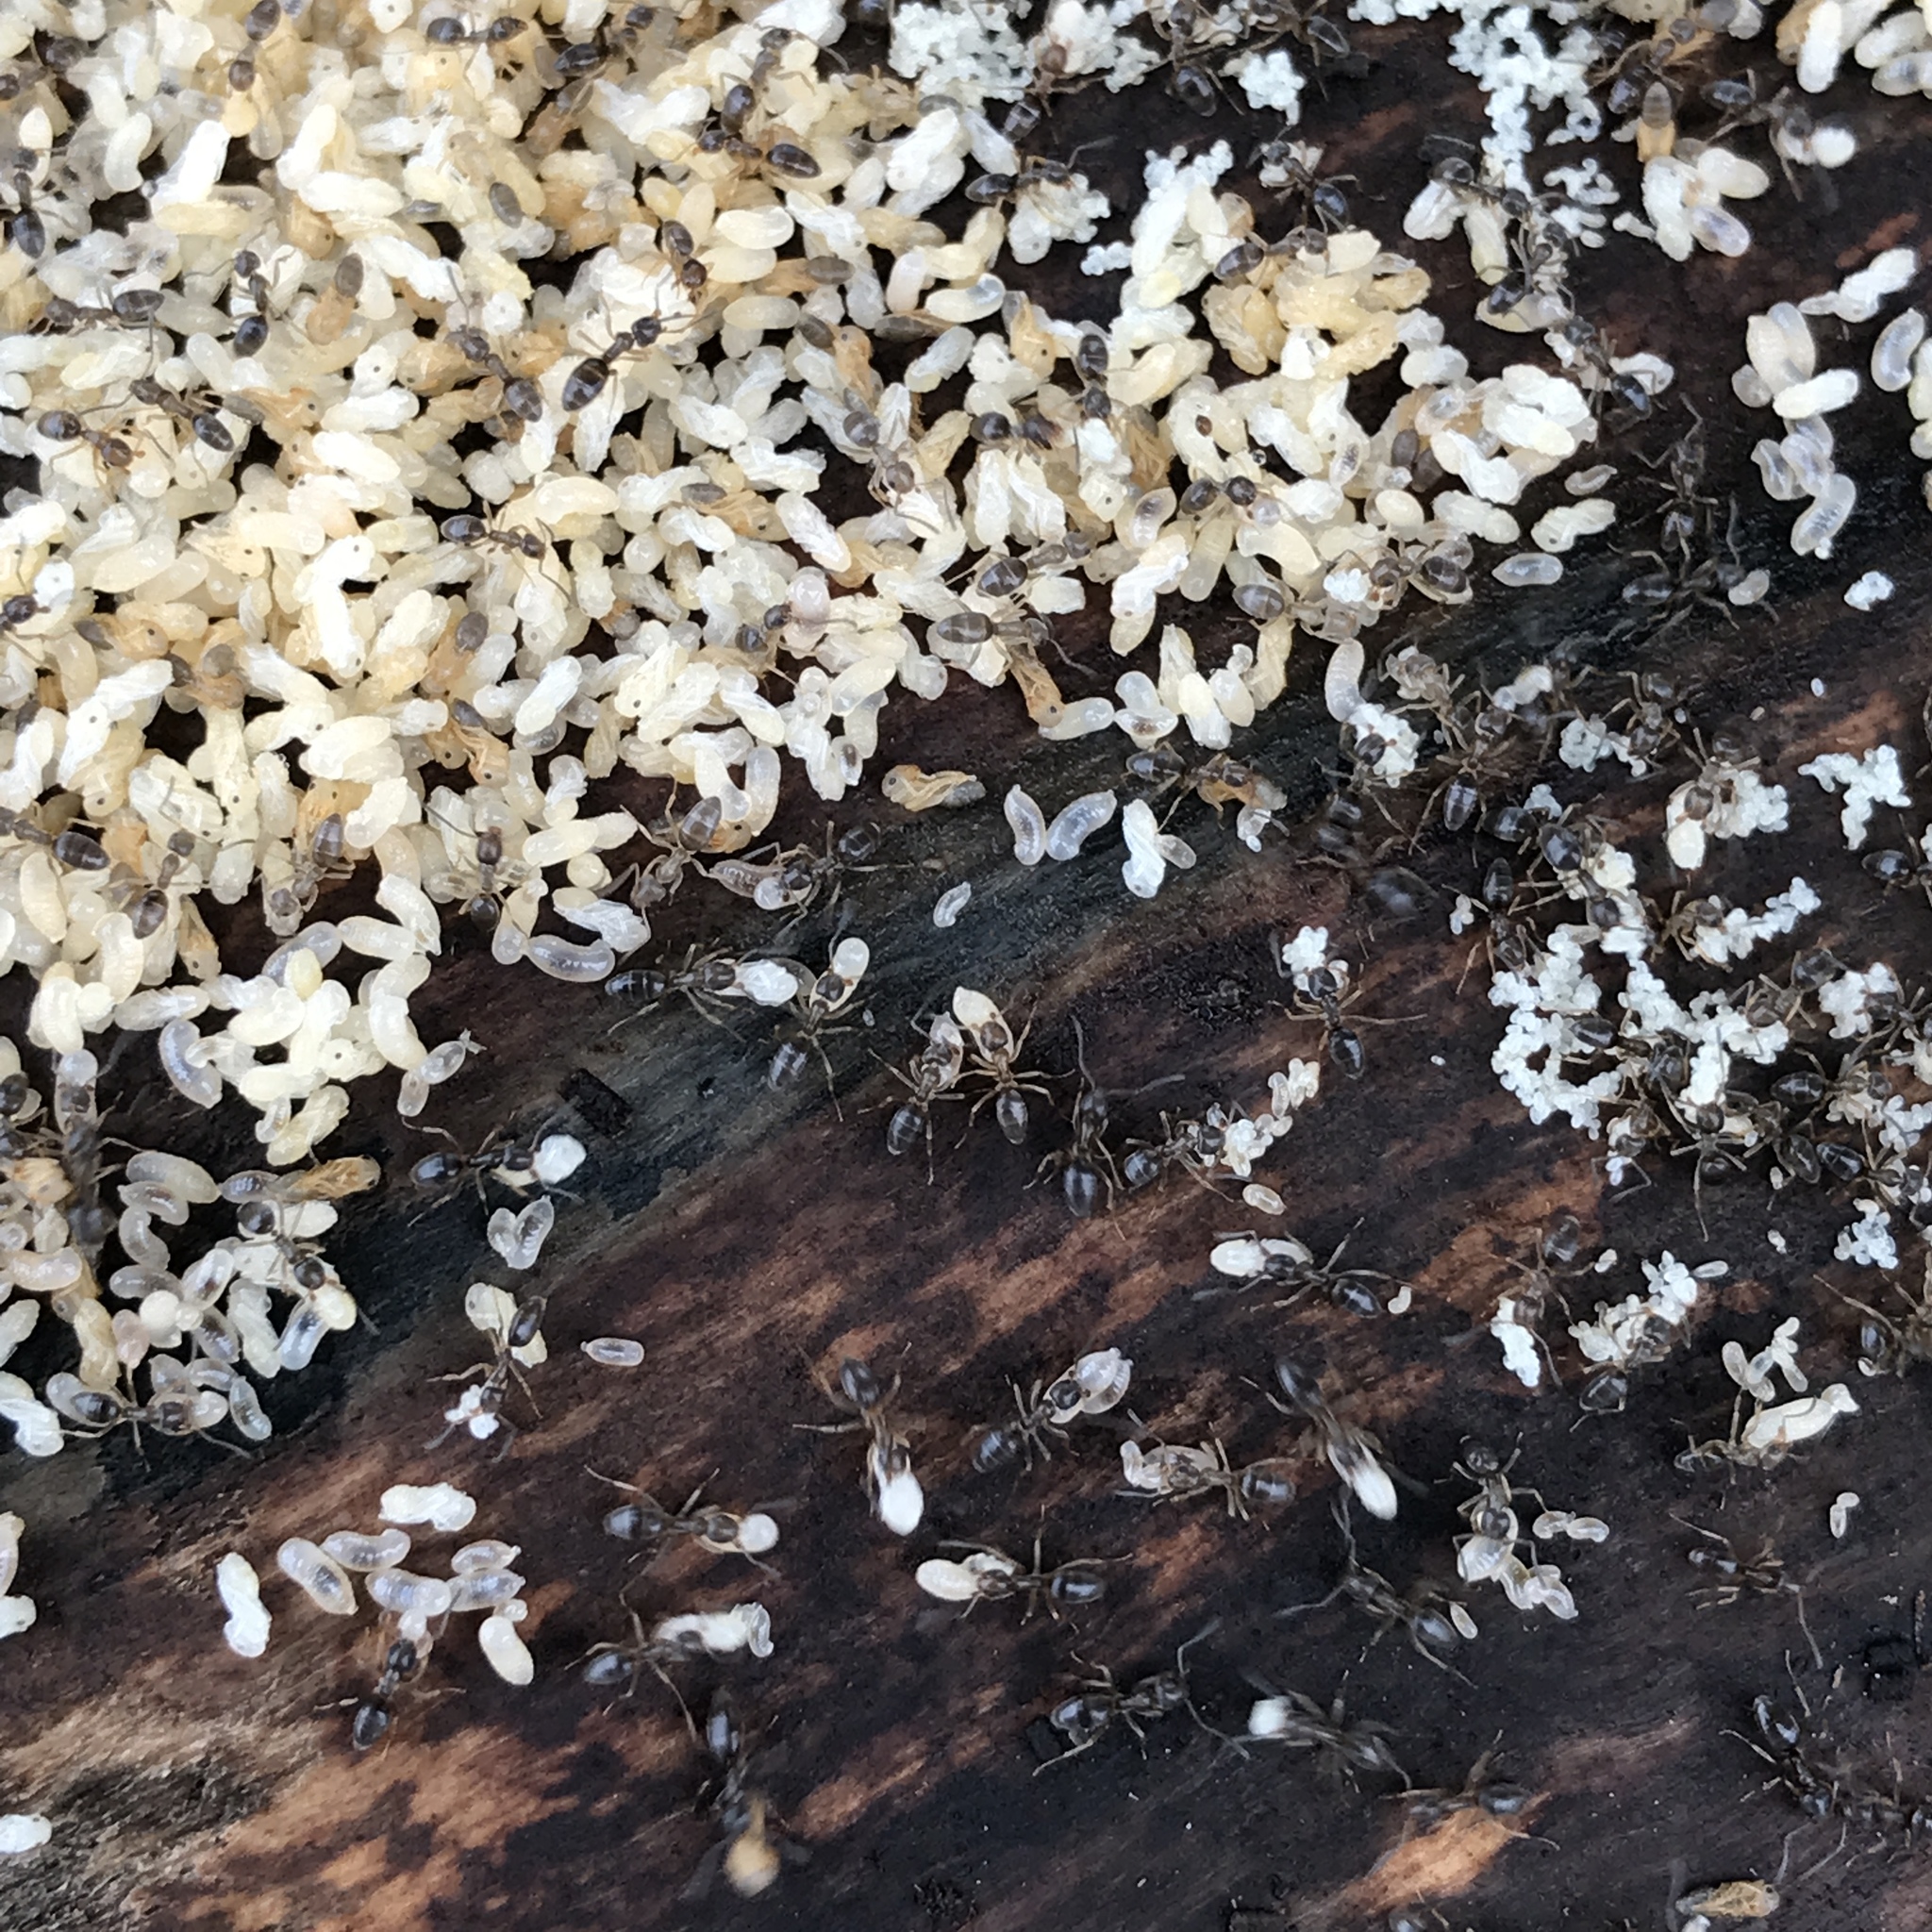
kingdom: Animalia
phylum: Arthropoda
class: Insecta
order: Hymenoptera
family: Formicidae
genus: Tapinoma
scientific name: Tapinoma sessile
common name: Odorous house ant
